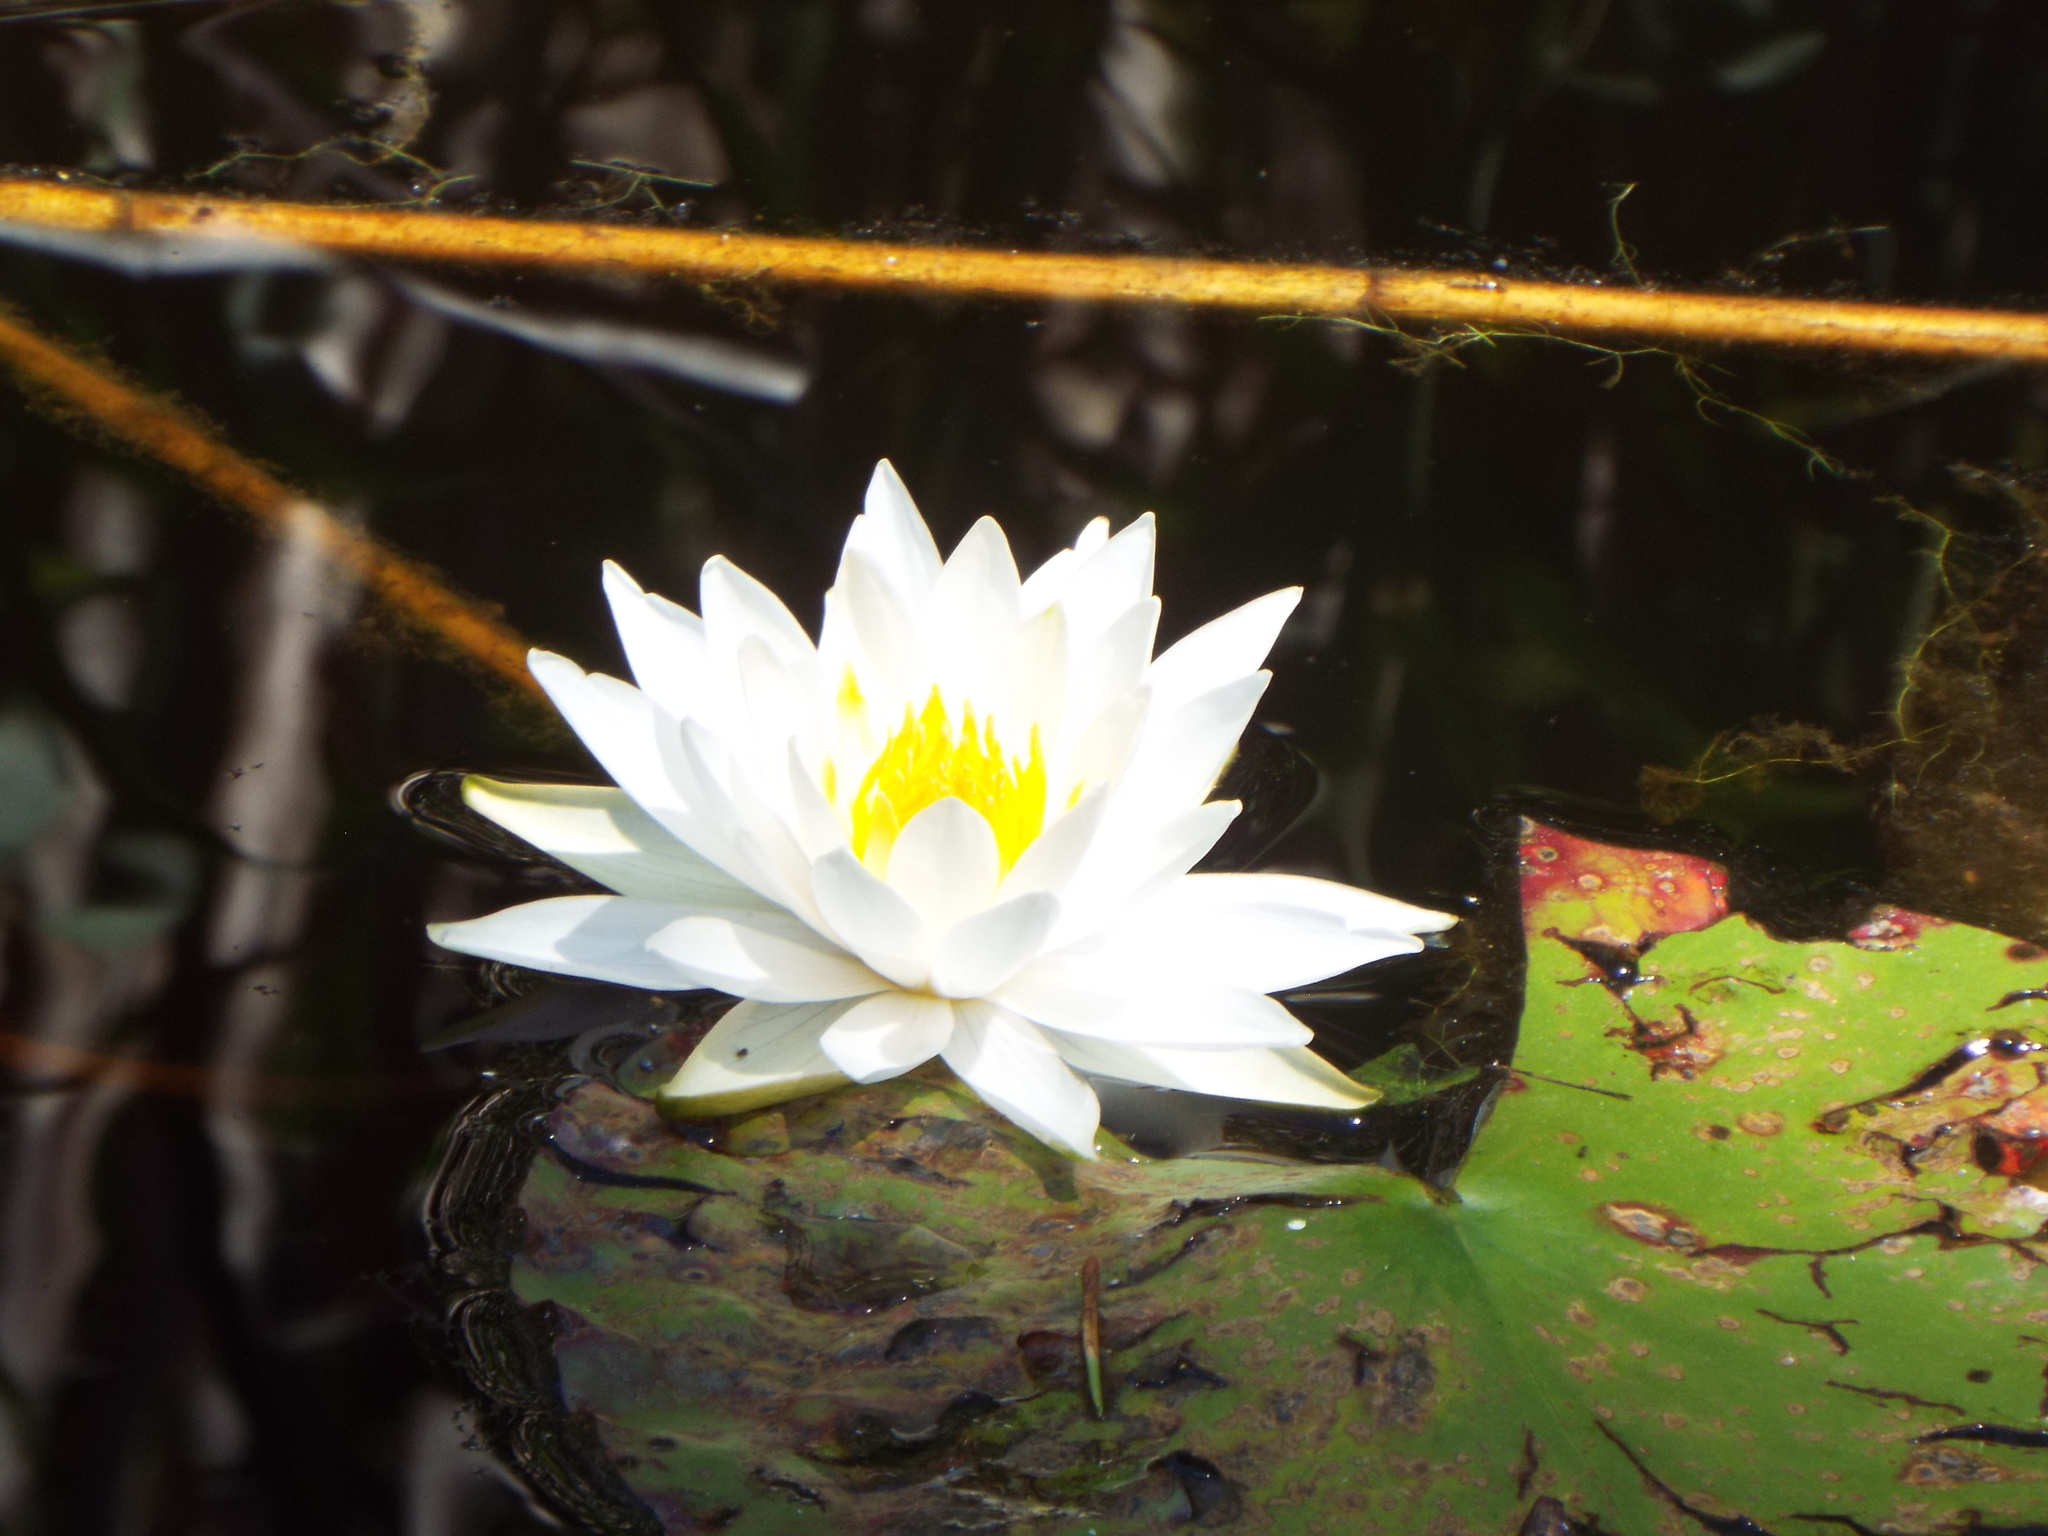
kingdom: Plantae
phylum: Tracheophyta
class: Magnoliopsida
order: Nymphaeales
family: Nymphaeaceae
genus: Nymphaea
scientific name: Nymphaea odorata
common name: Fragrant water-lily
